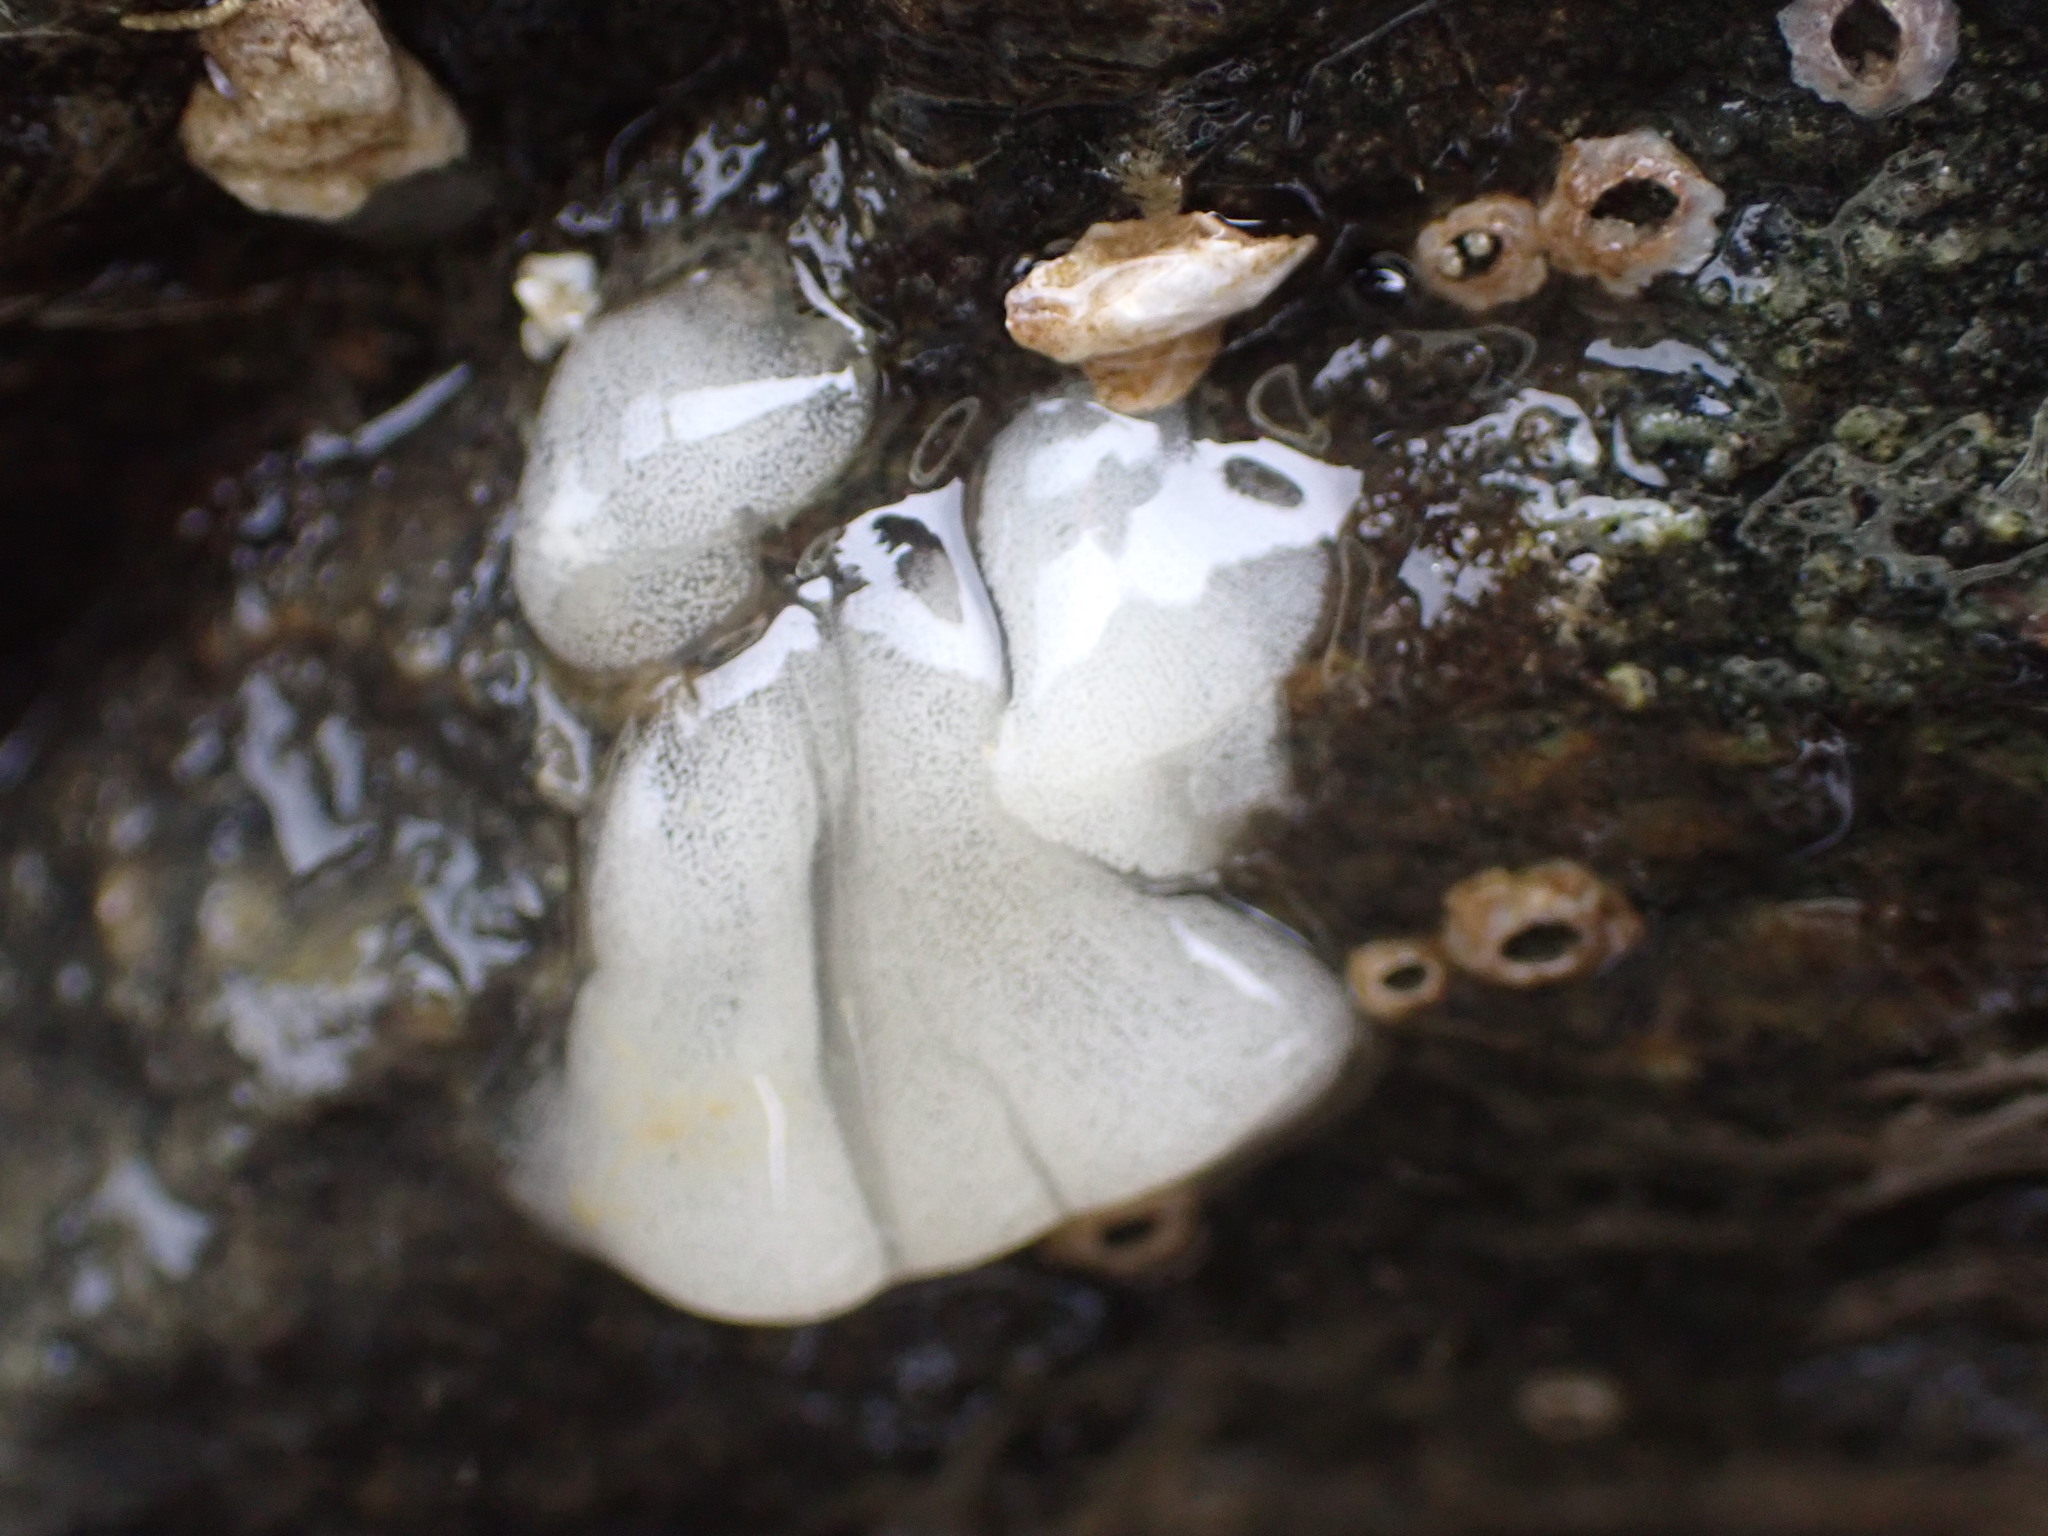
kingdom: Animalia
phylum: Mollusca
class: Gastropoda
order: Nudibranchia
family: Onchidorididae
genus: Onchidoris
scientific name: Onchidoris bilamellata
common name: Barnacle-eating onchidoris
